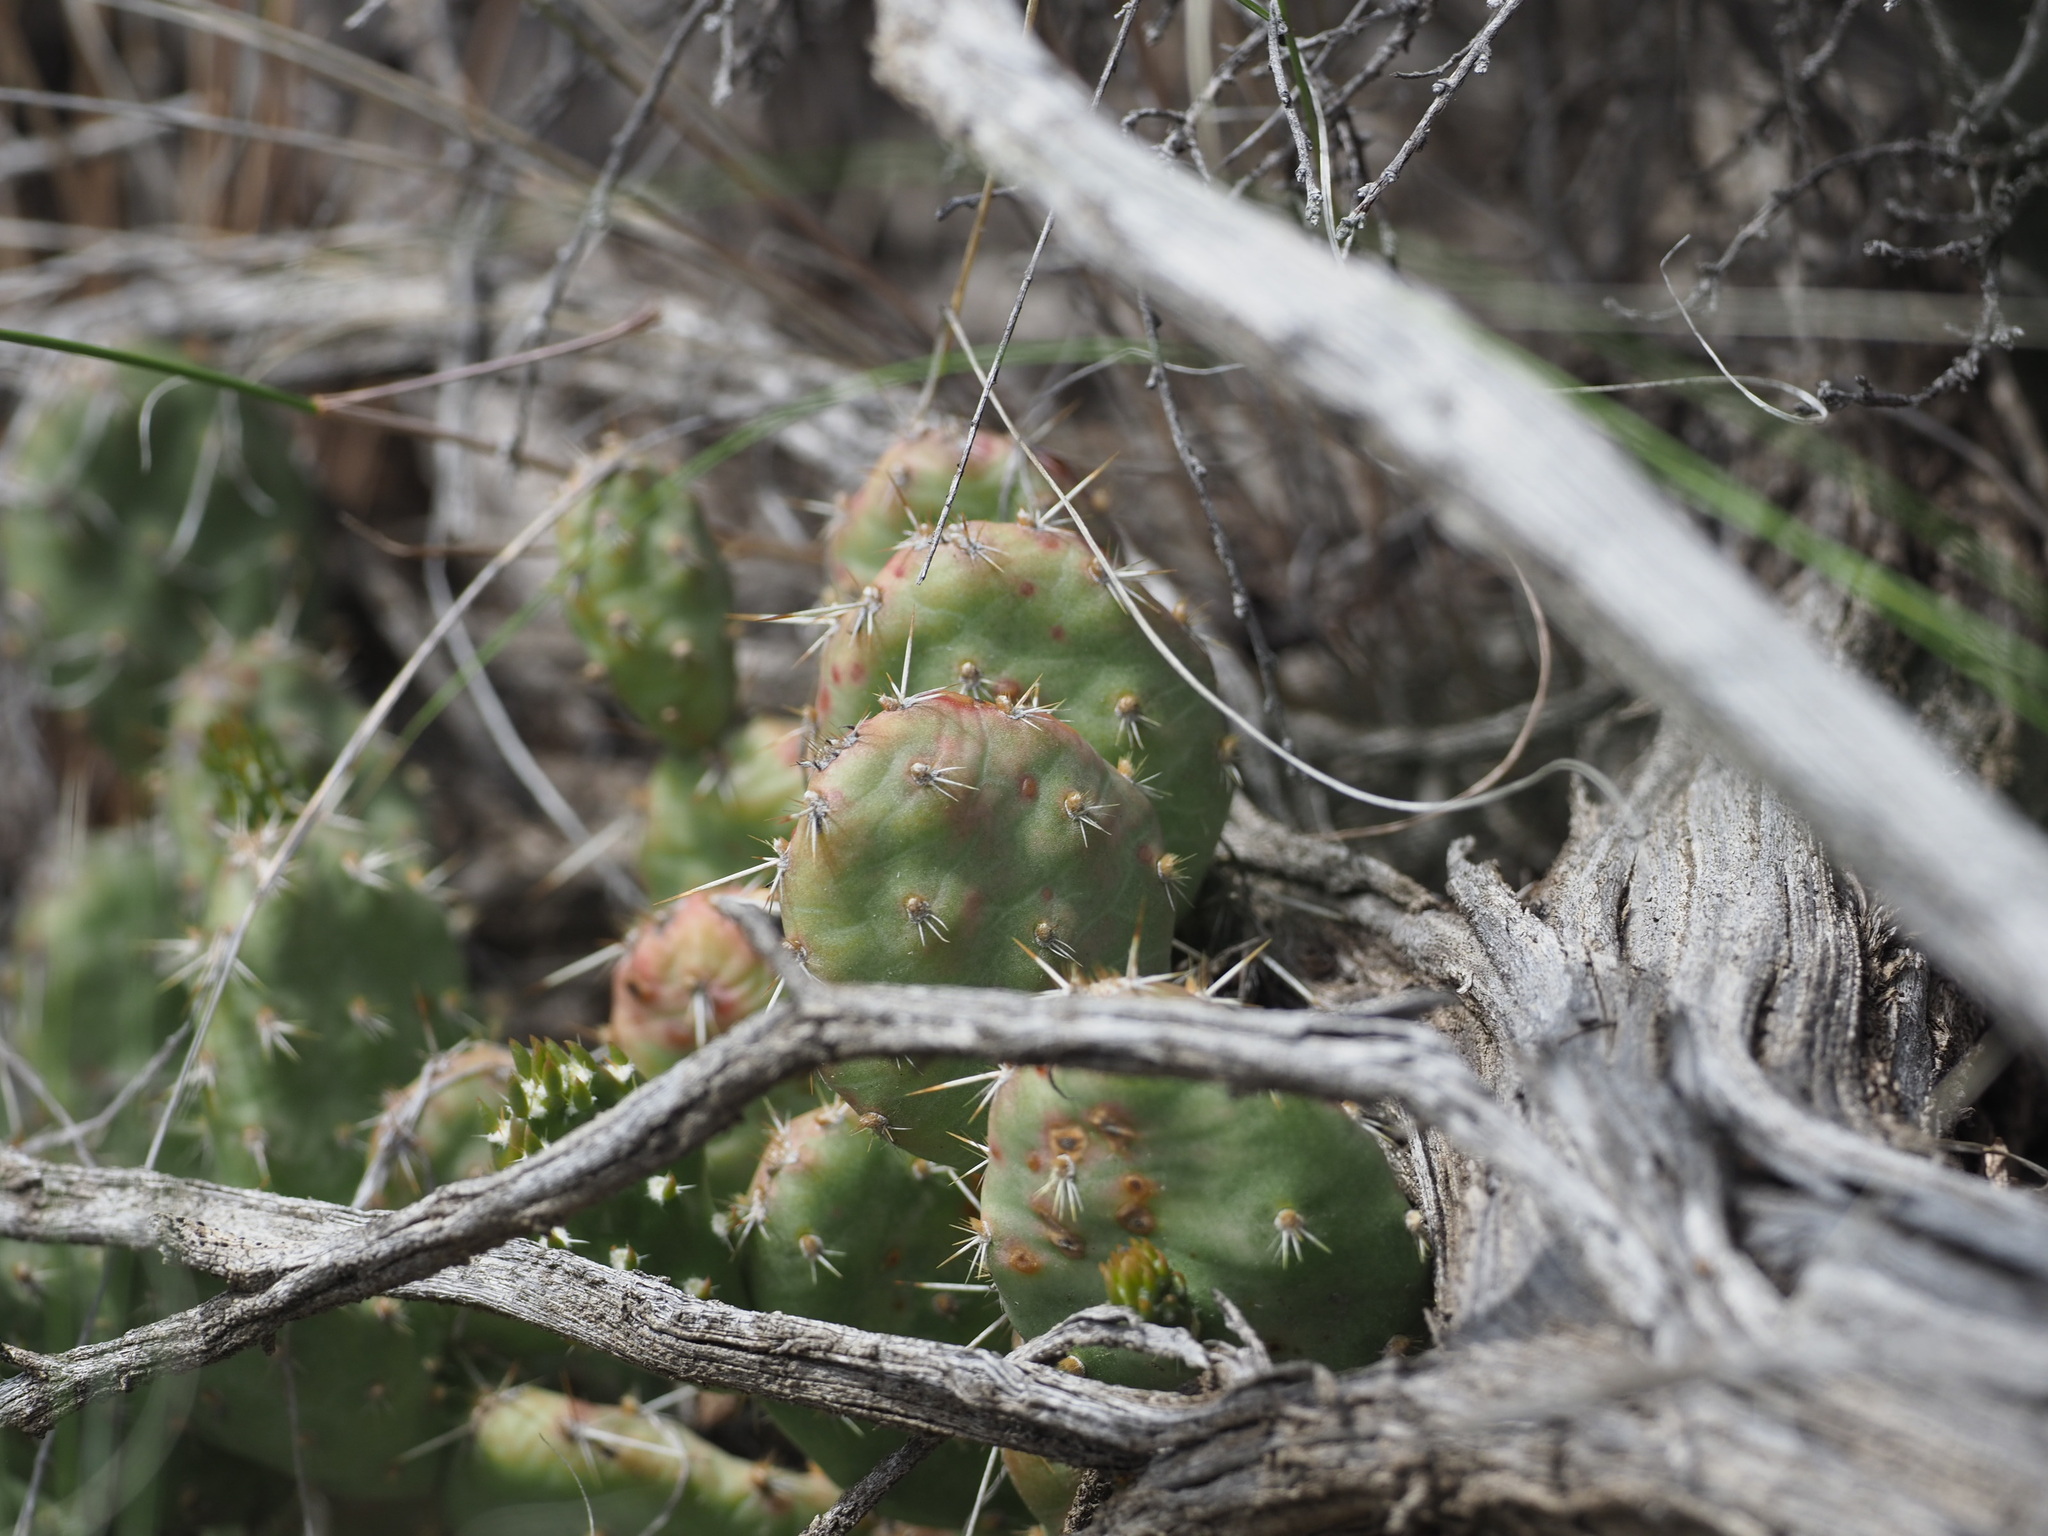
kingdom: Plantae
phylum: Tracheophyta
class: Magnoliopsida
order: Caryophyllales
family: Cactaceae
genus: Opuntia
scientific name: Opuntia fragilis
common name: Brittle cactus
